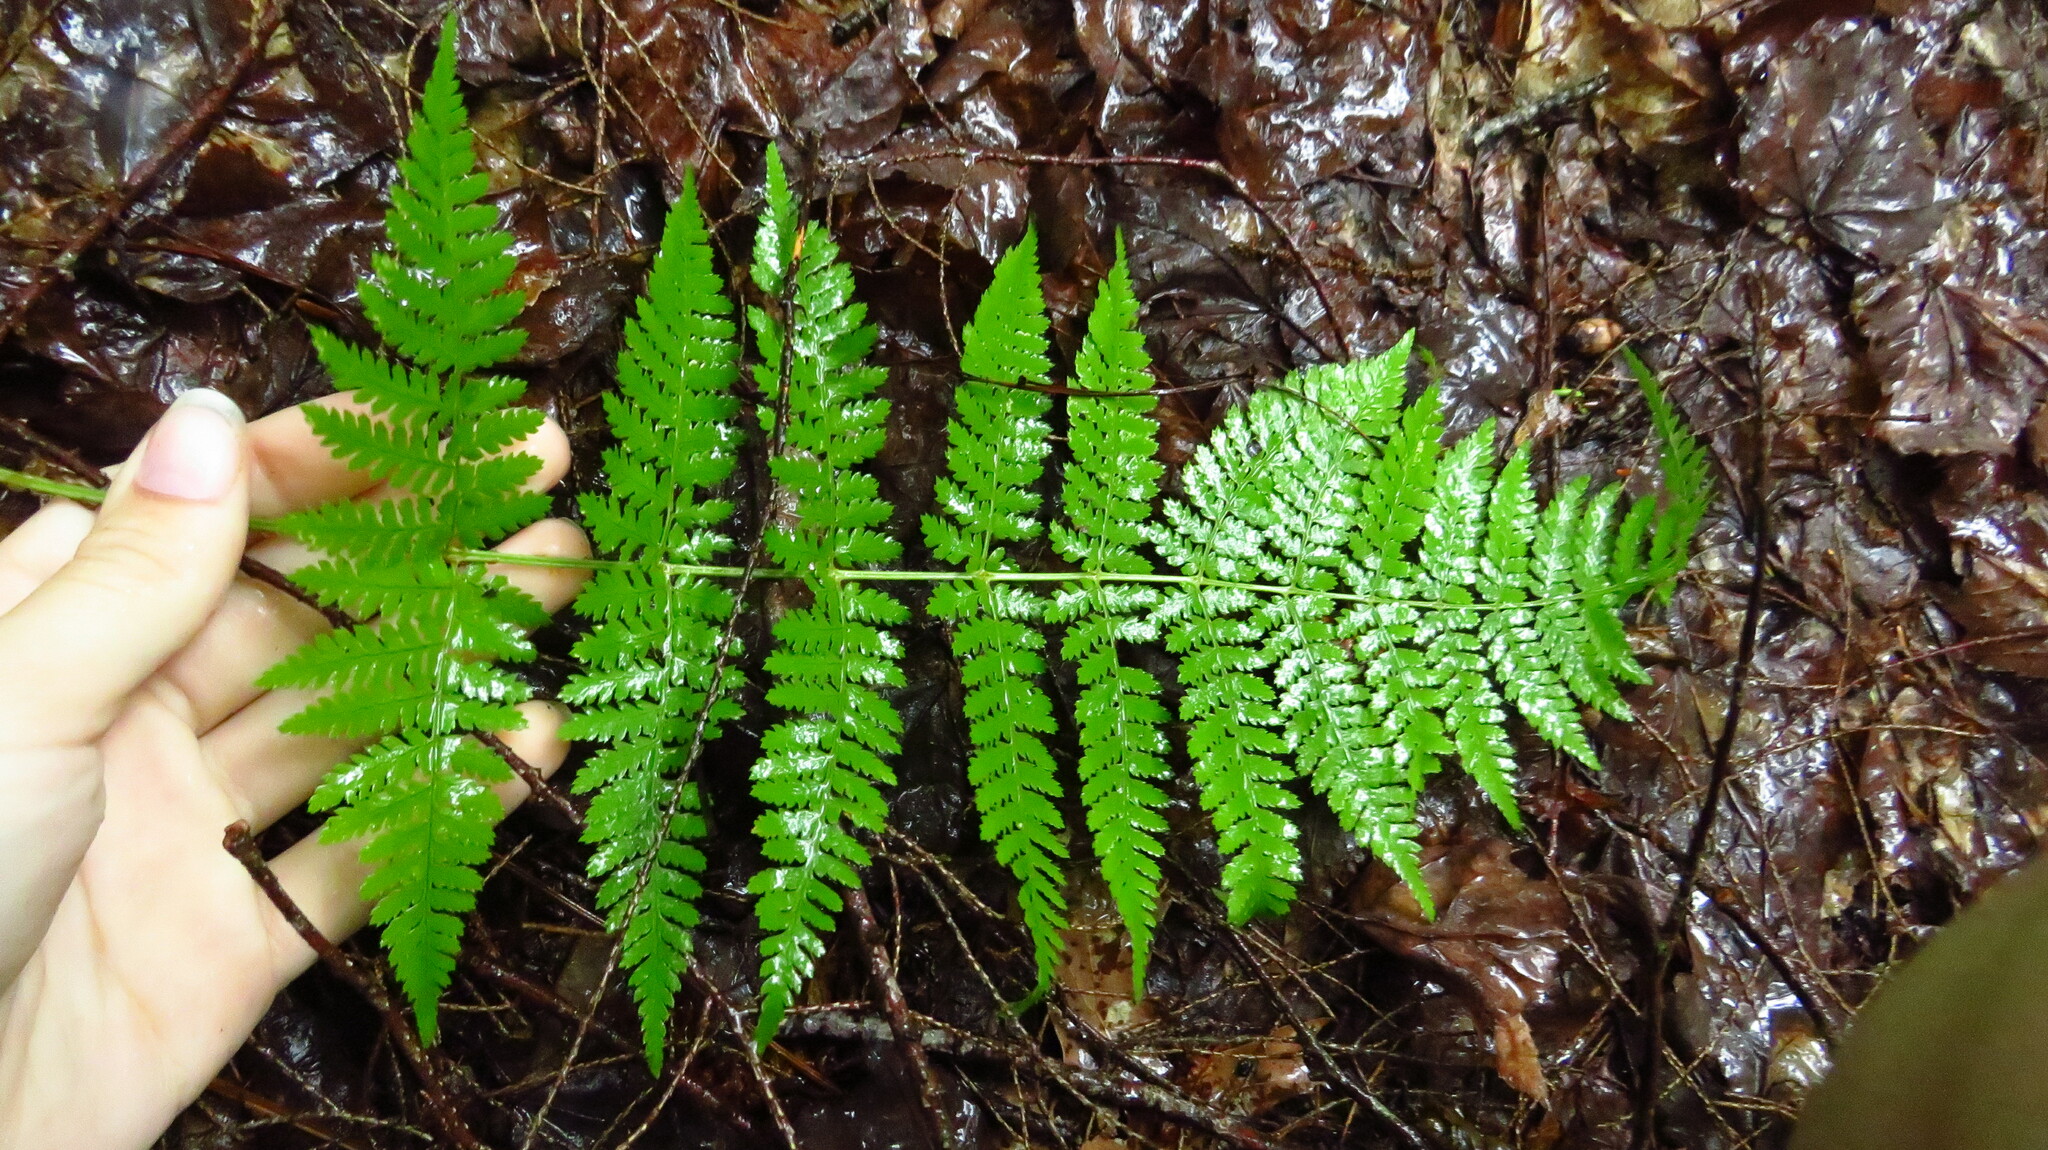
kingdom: Plantae
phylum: Tracheophyta
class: Polypodiopsida
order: Polypodiales
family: Dryopteridaceae
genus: Dryopteris
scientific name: Dryopteris intermedia
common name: Evergreen wood fern
